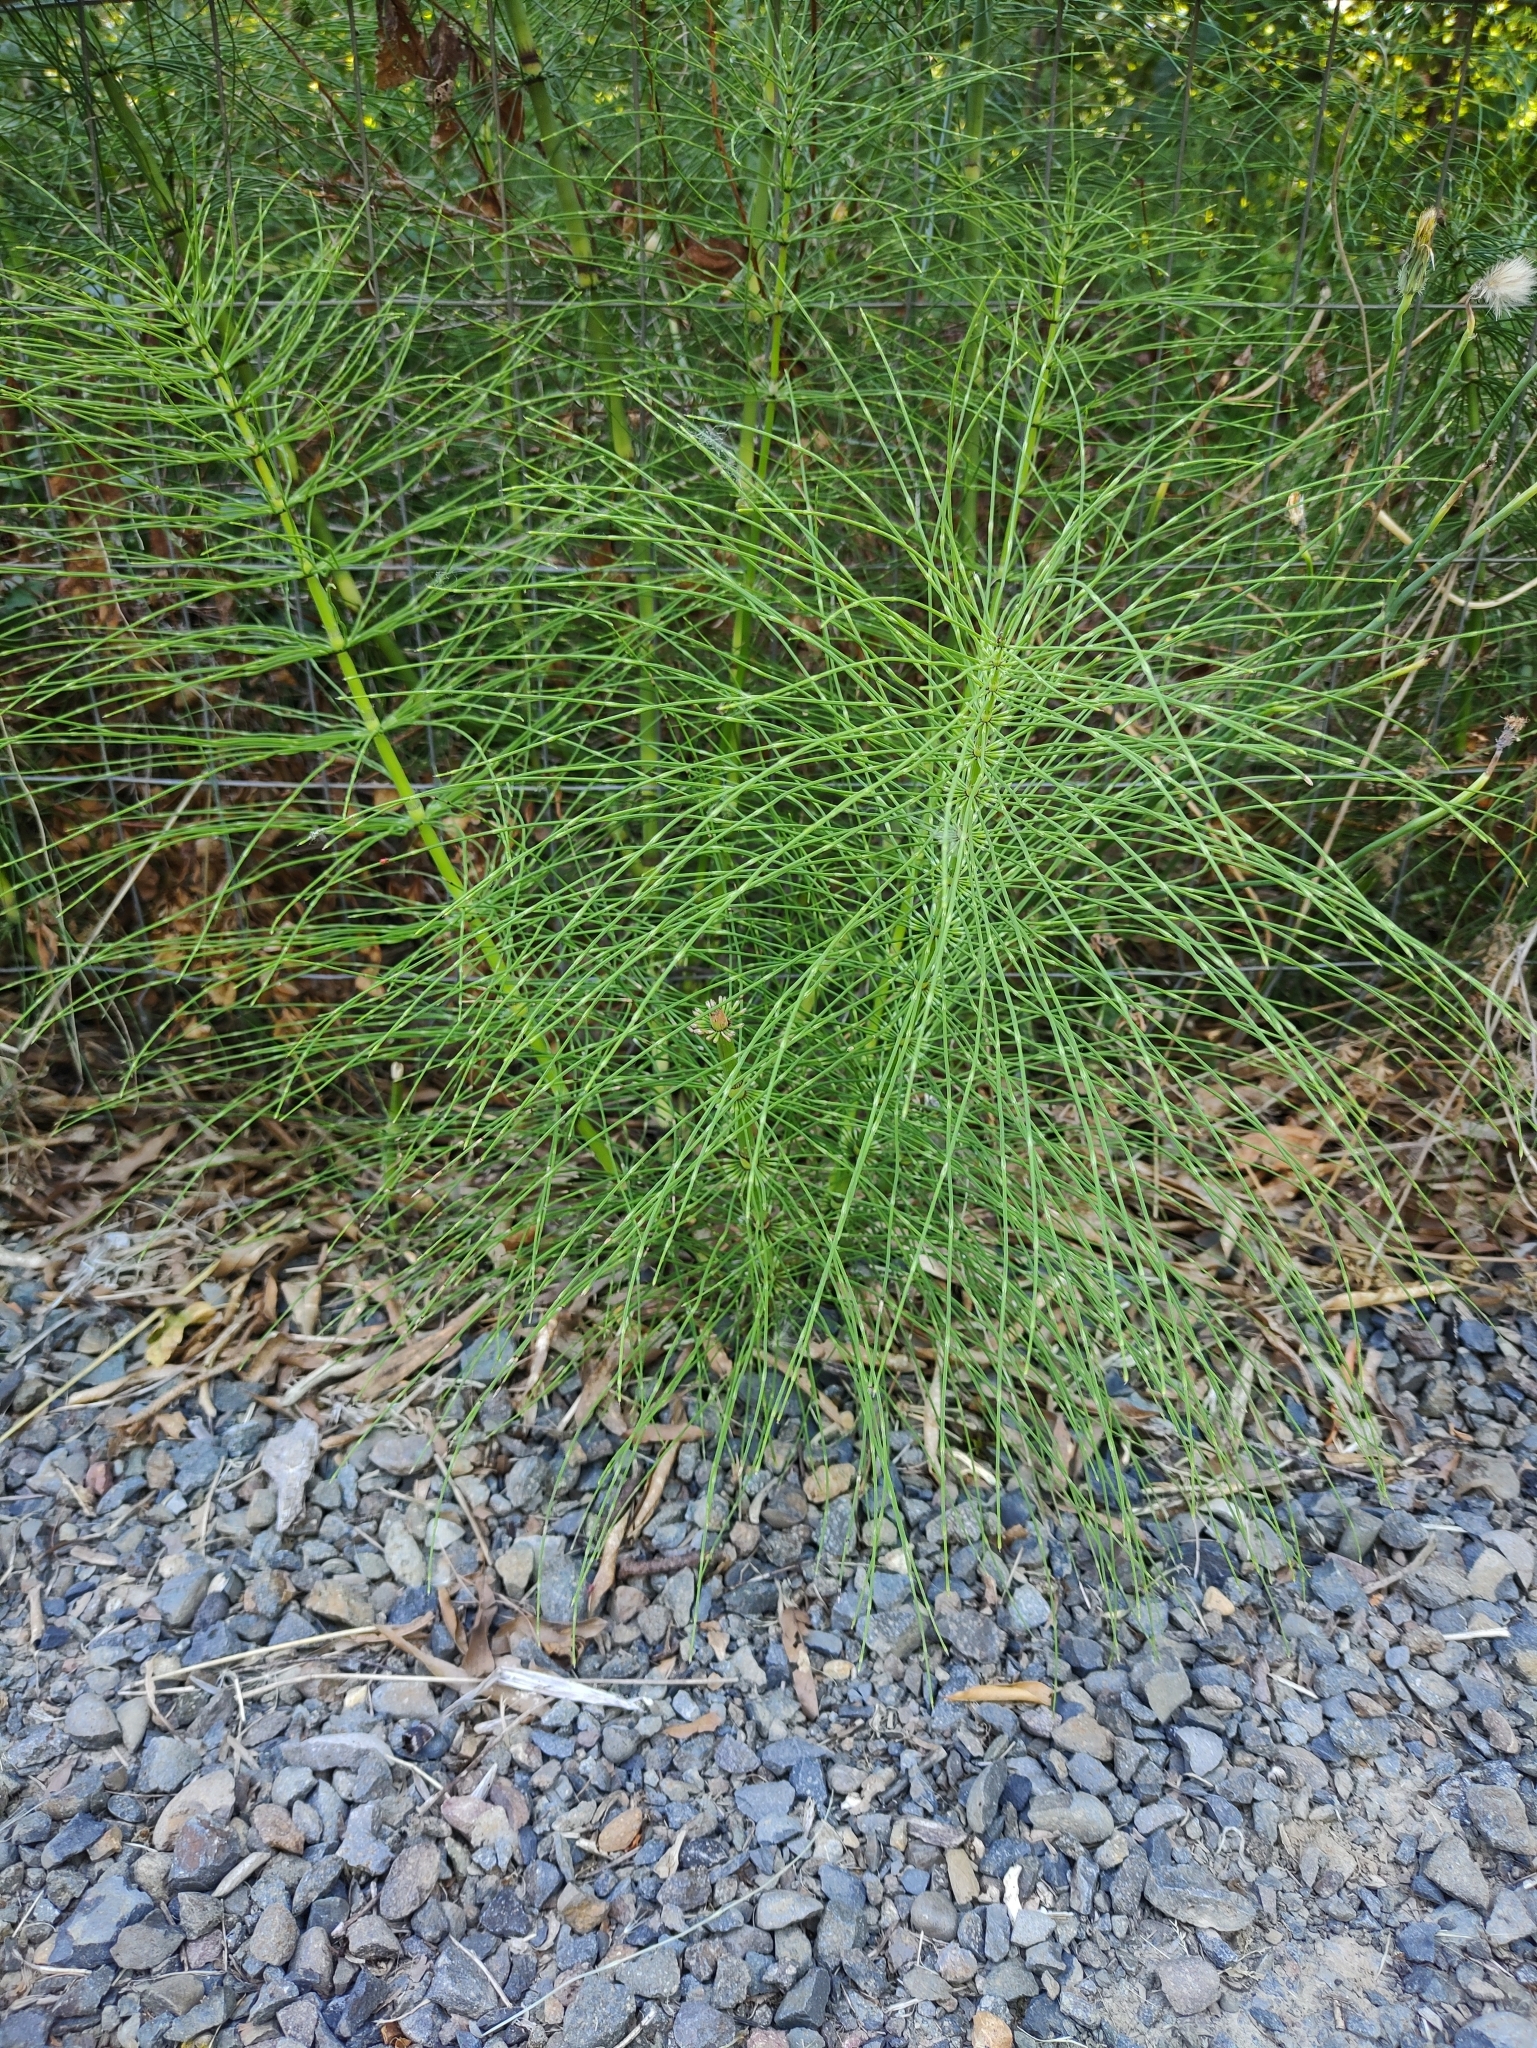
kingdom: Plantae
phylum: Tracheophyta
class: Polypodiopsida
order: Equisetales
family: Equisetaceae
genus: Equisetum
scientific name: Equisetum telmateia
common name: Great horsetail
